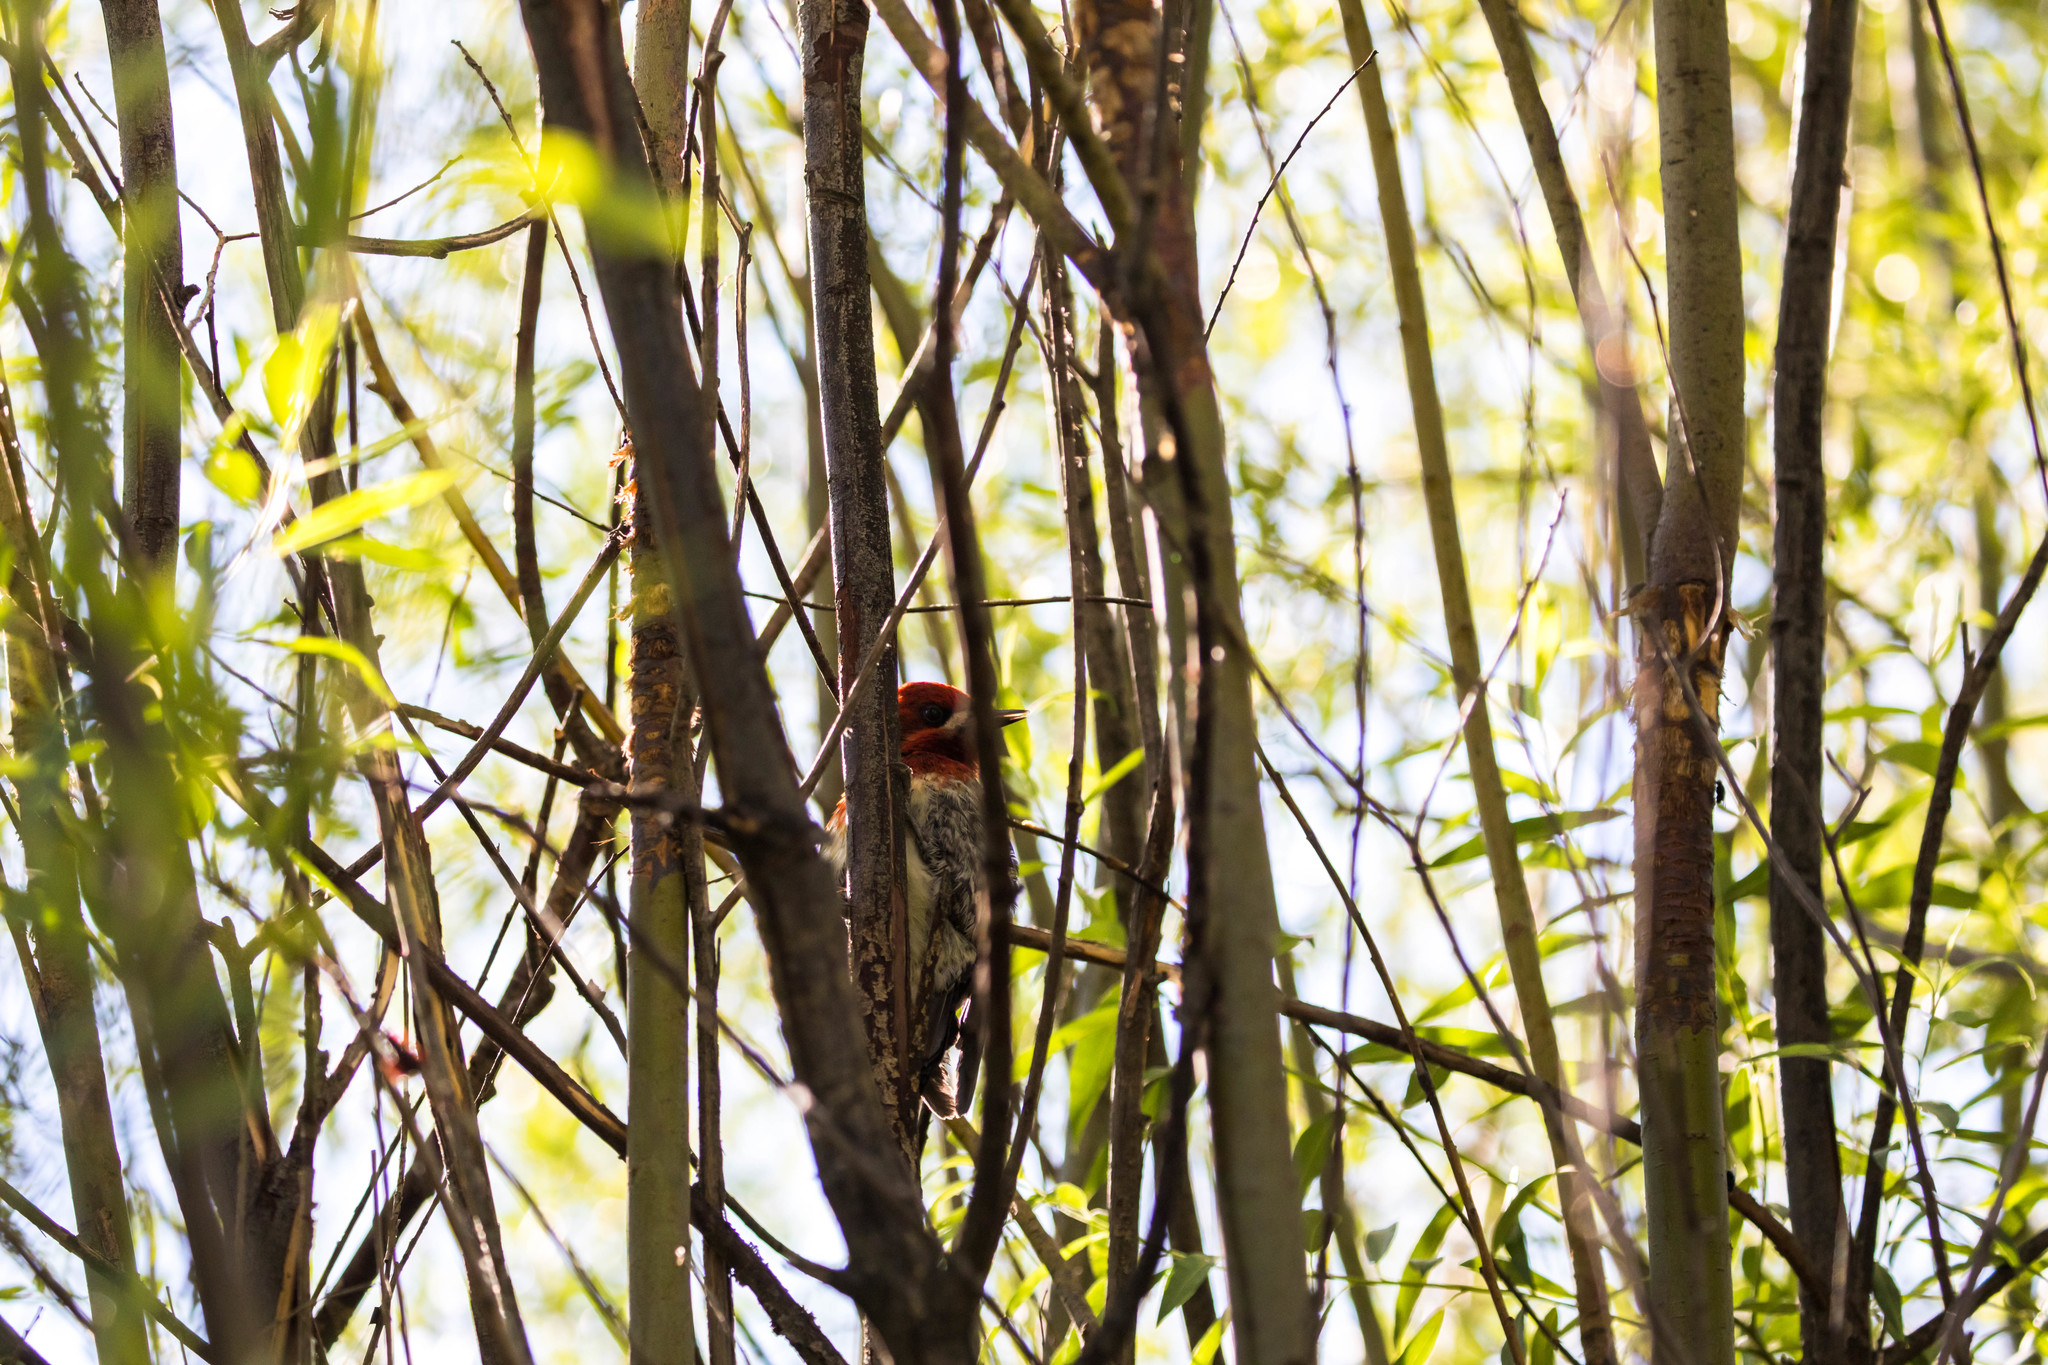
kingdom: Animalia
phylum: Chordata
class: Aves
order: Piciformes
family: Picidae
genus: Sphyrapicus
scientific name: Sphyrapicus ruber
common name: Red-breasted sapsucker
